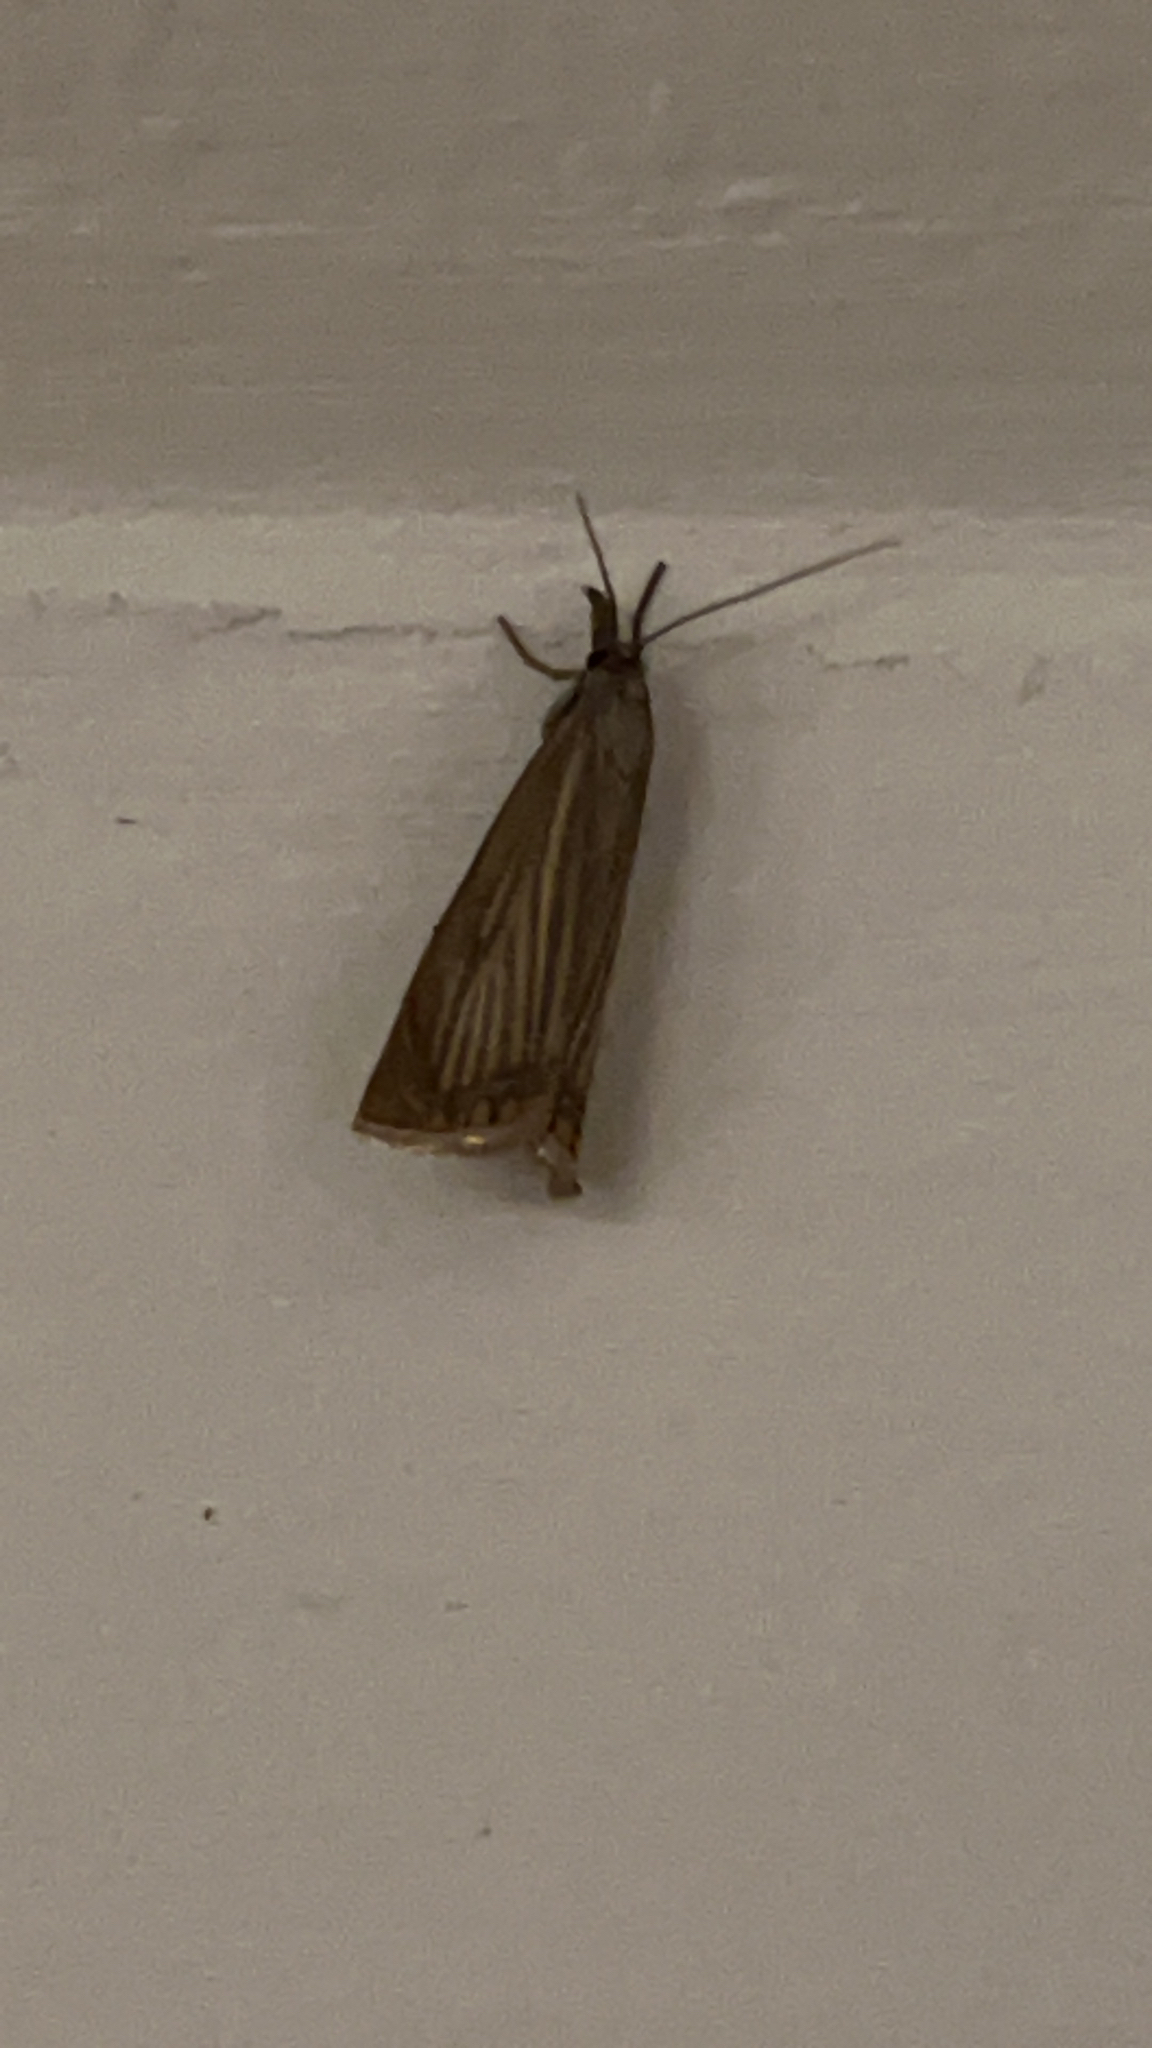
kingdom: Animalia
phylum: Arthropoda
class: Insecta
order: Lepidoptera
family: Crambidae
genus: Chrysoteuchia
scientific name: Chrysoteuchia culmella
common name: Garden grass-veneer
